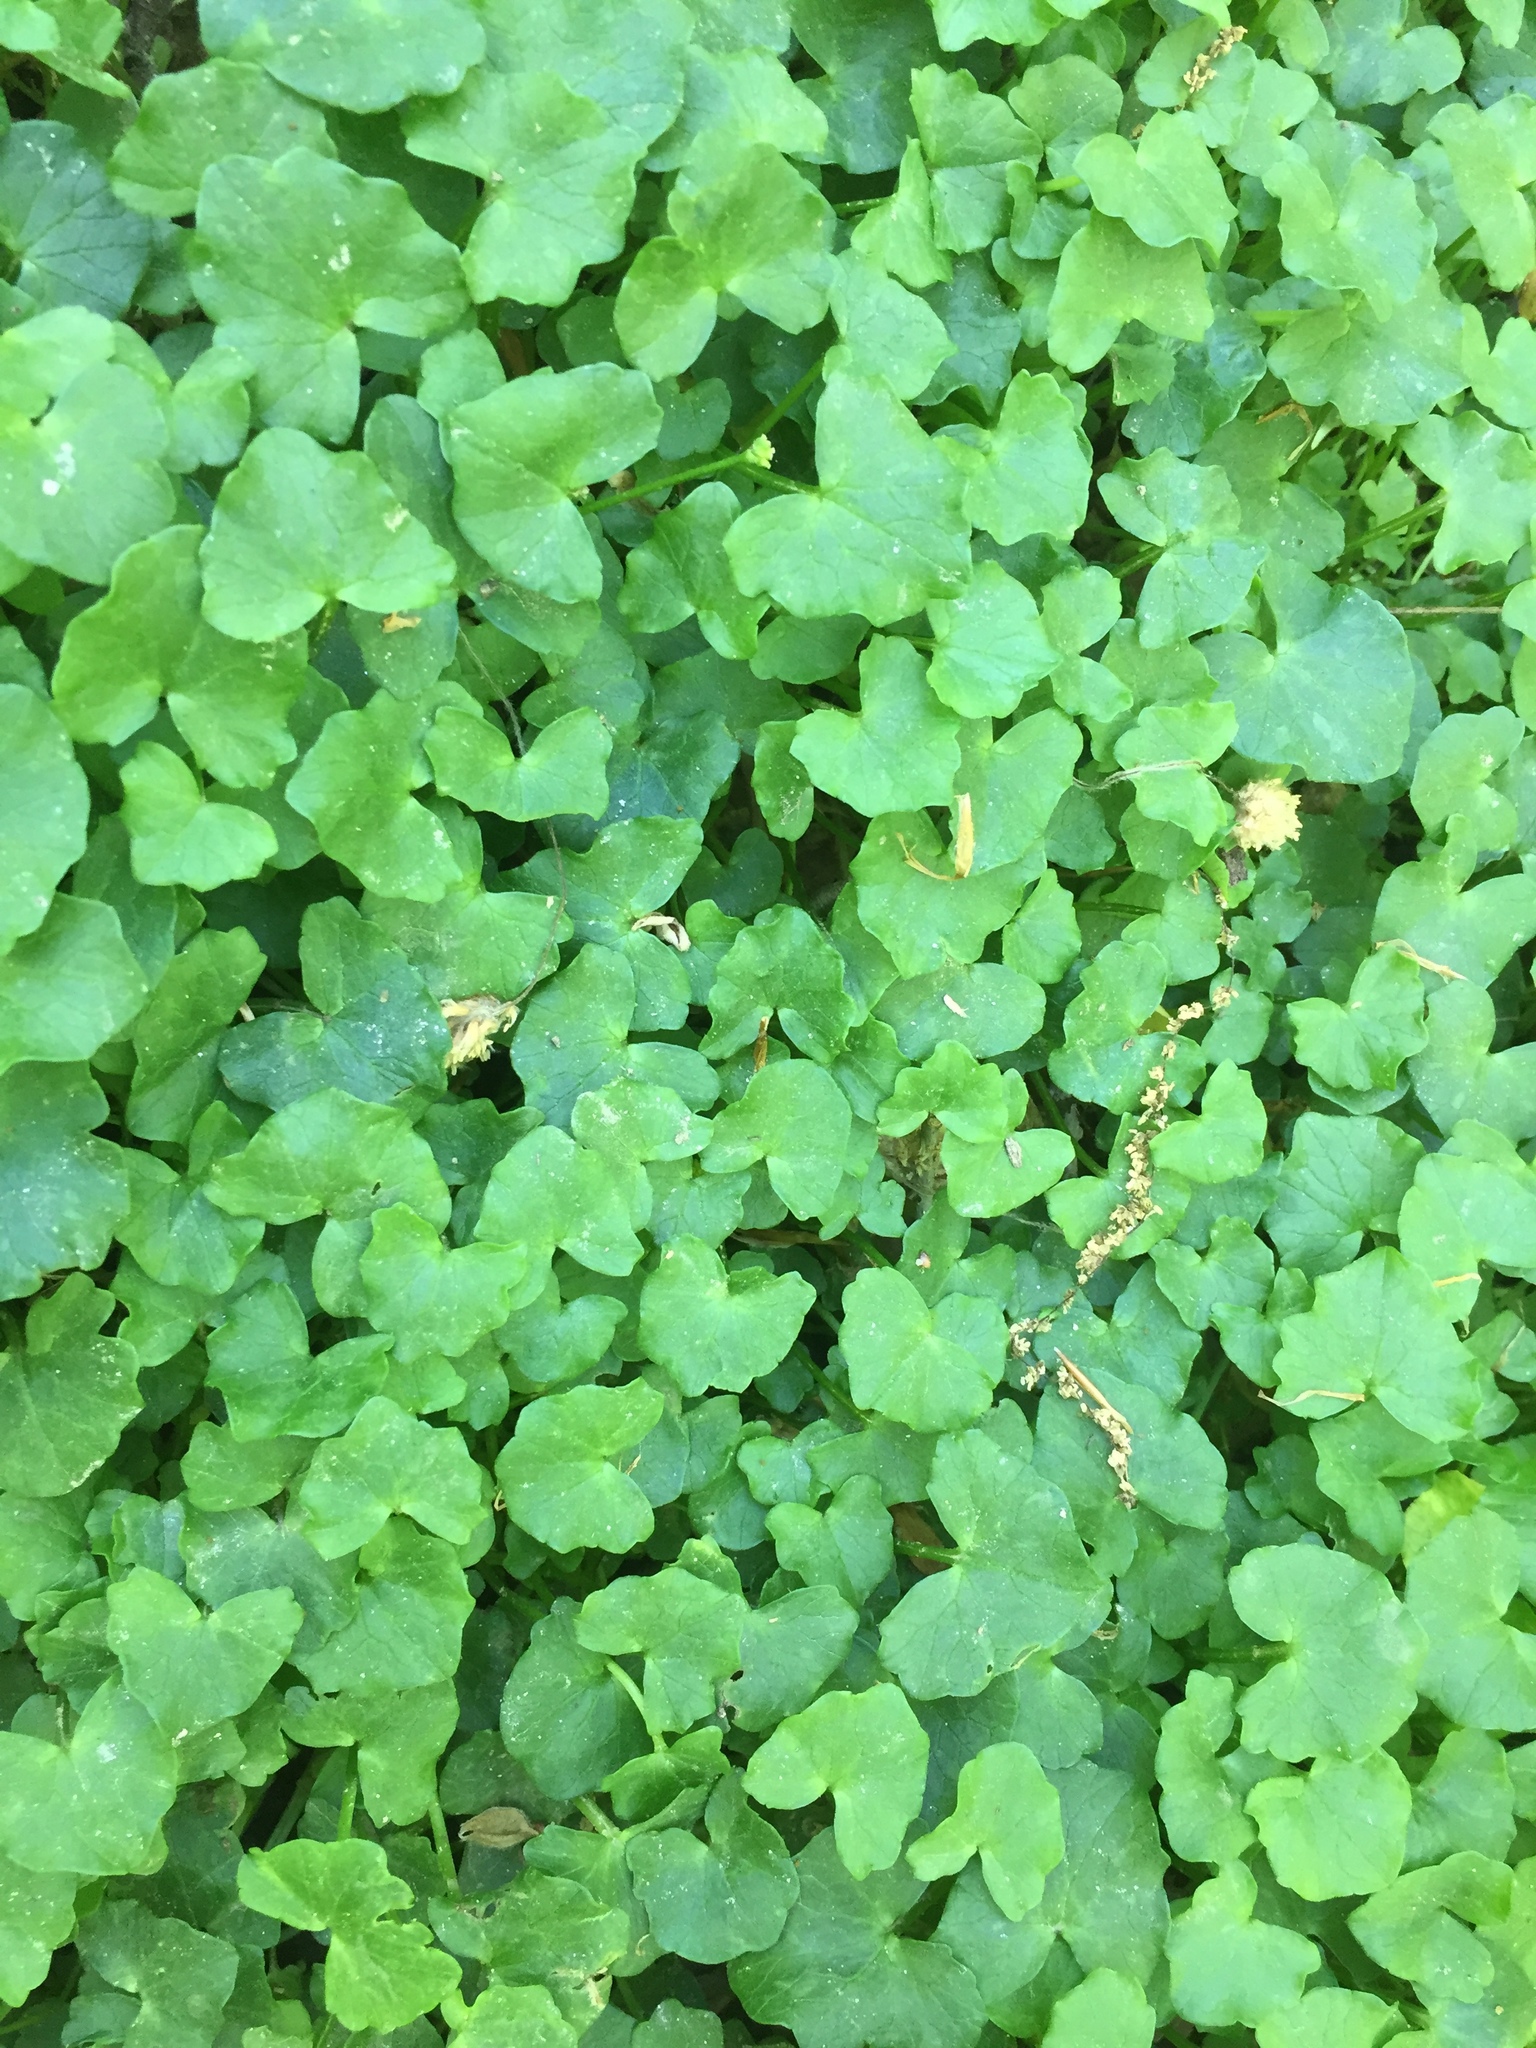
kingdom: Plantae
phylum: Tracheophyta
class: Magnoliopsida
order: Ranunculales
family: Ranunculaceae
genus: Ficaria
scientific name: Ficaria verna
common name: Lesser celandine
